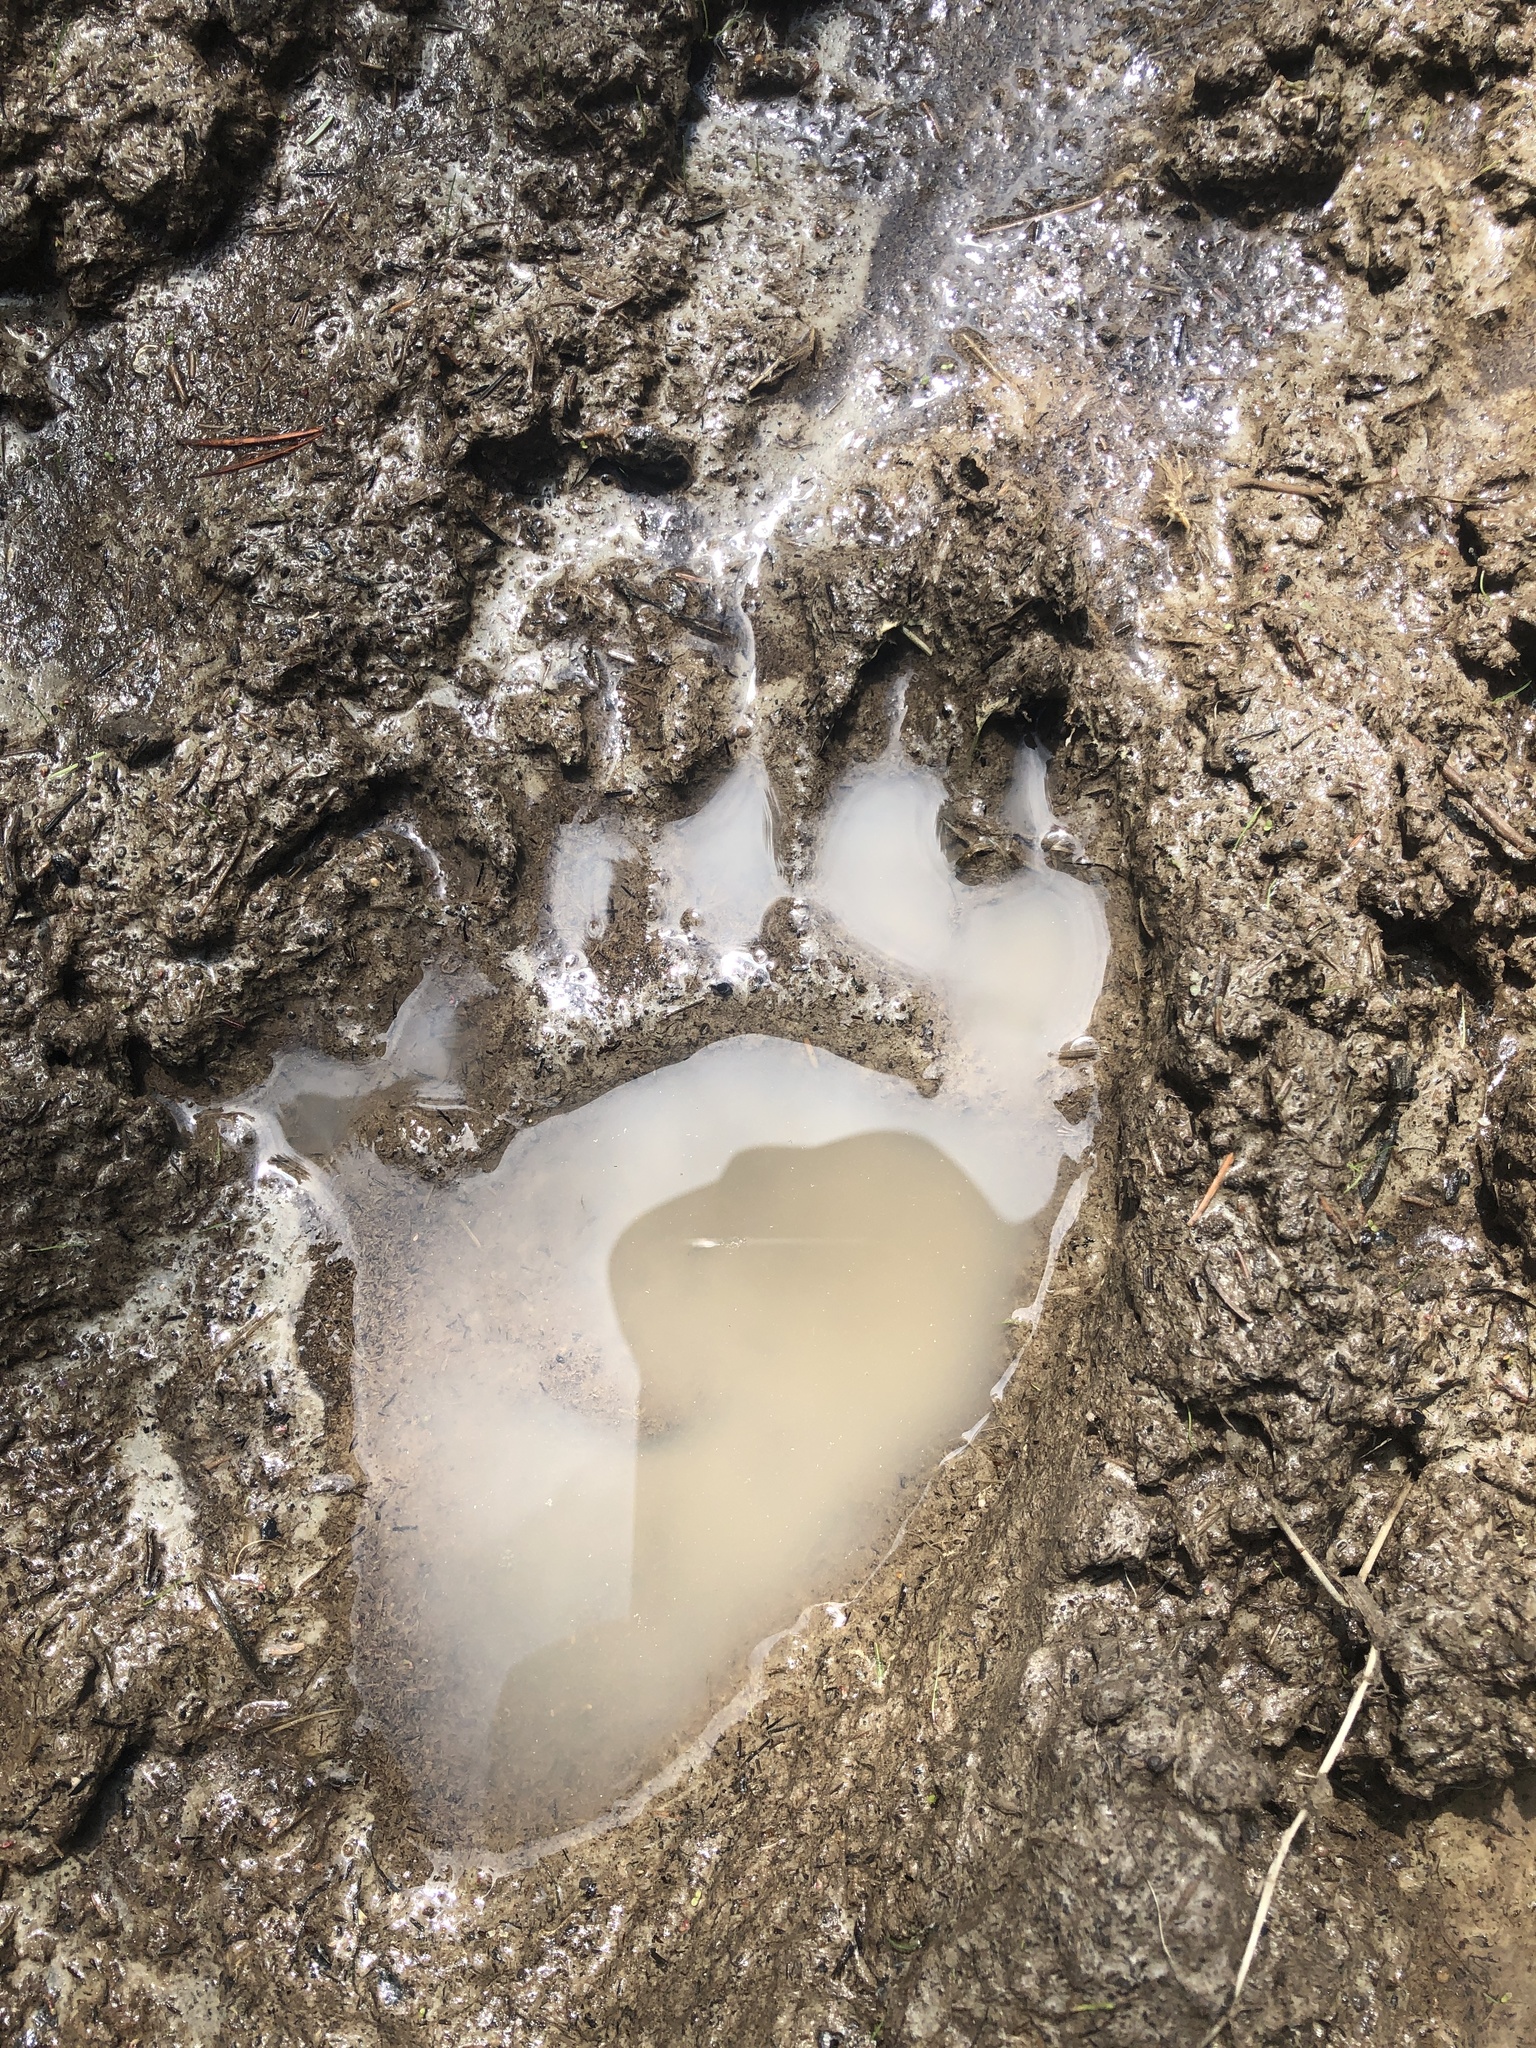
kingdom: Animalia
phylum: Chordata
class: Mammalia
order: Carnivora
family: Ursidae
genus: Ursus
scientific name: Ursus americanus
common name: American black bear
